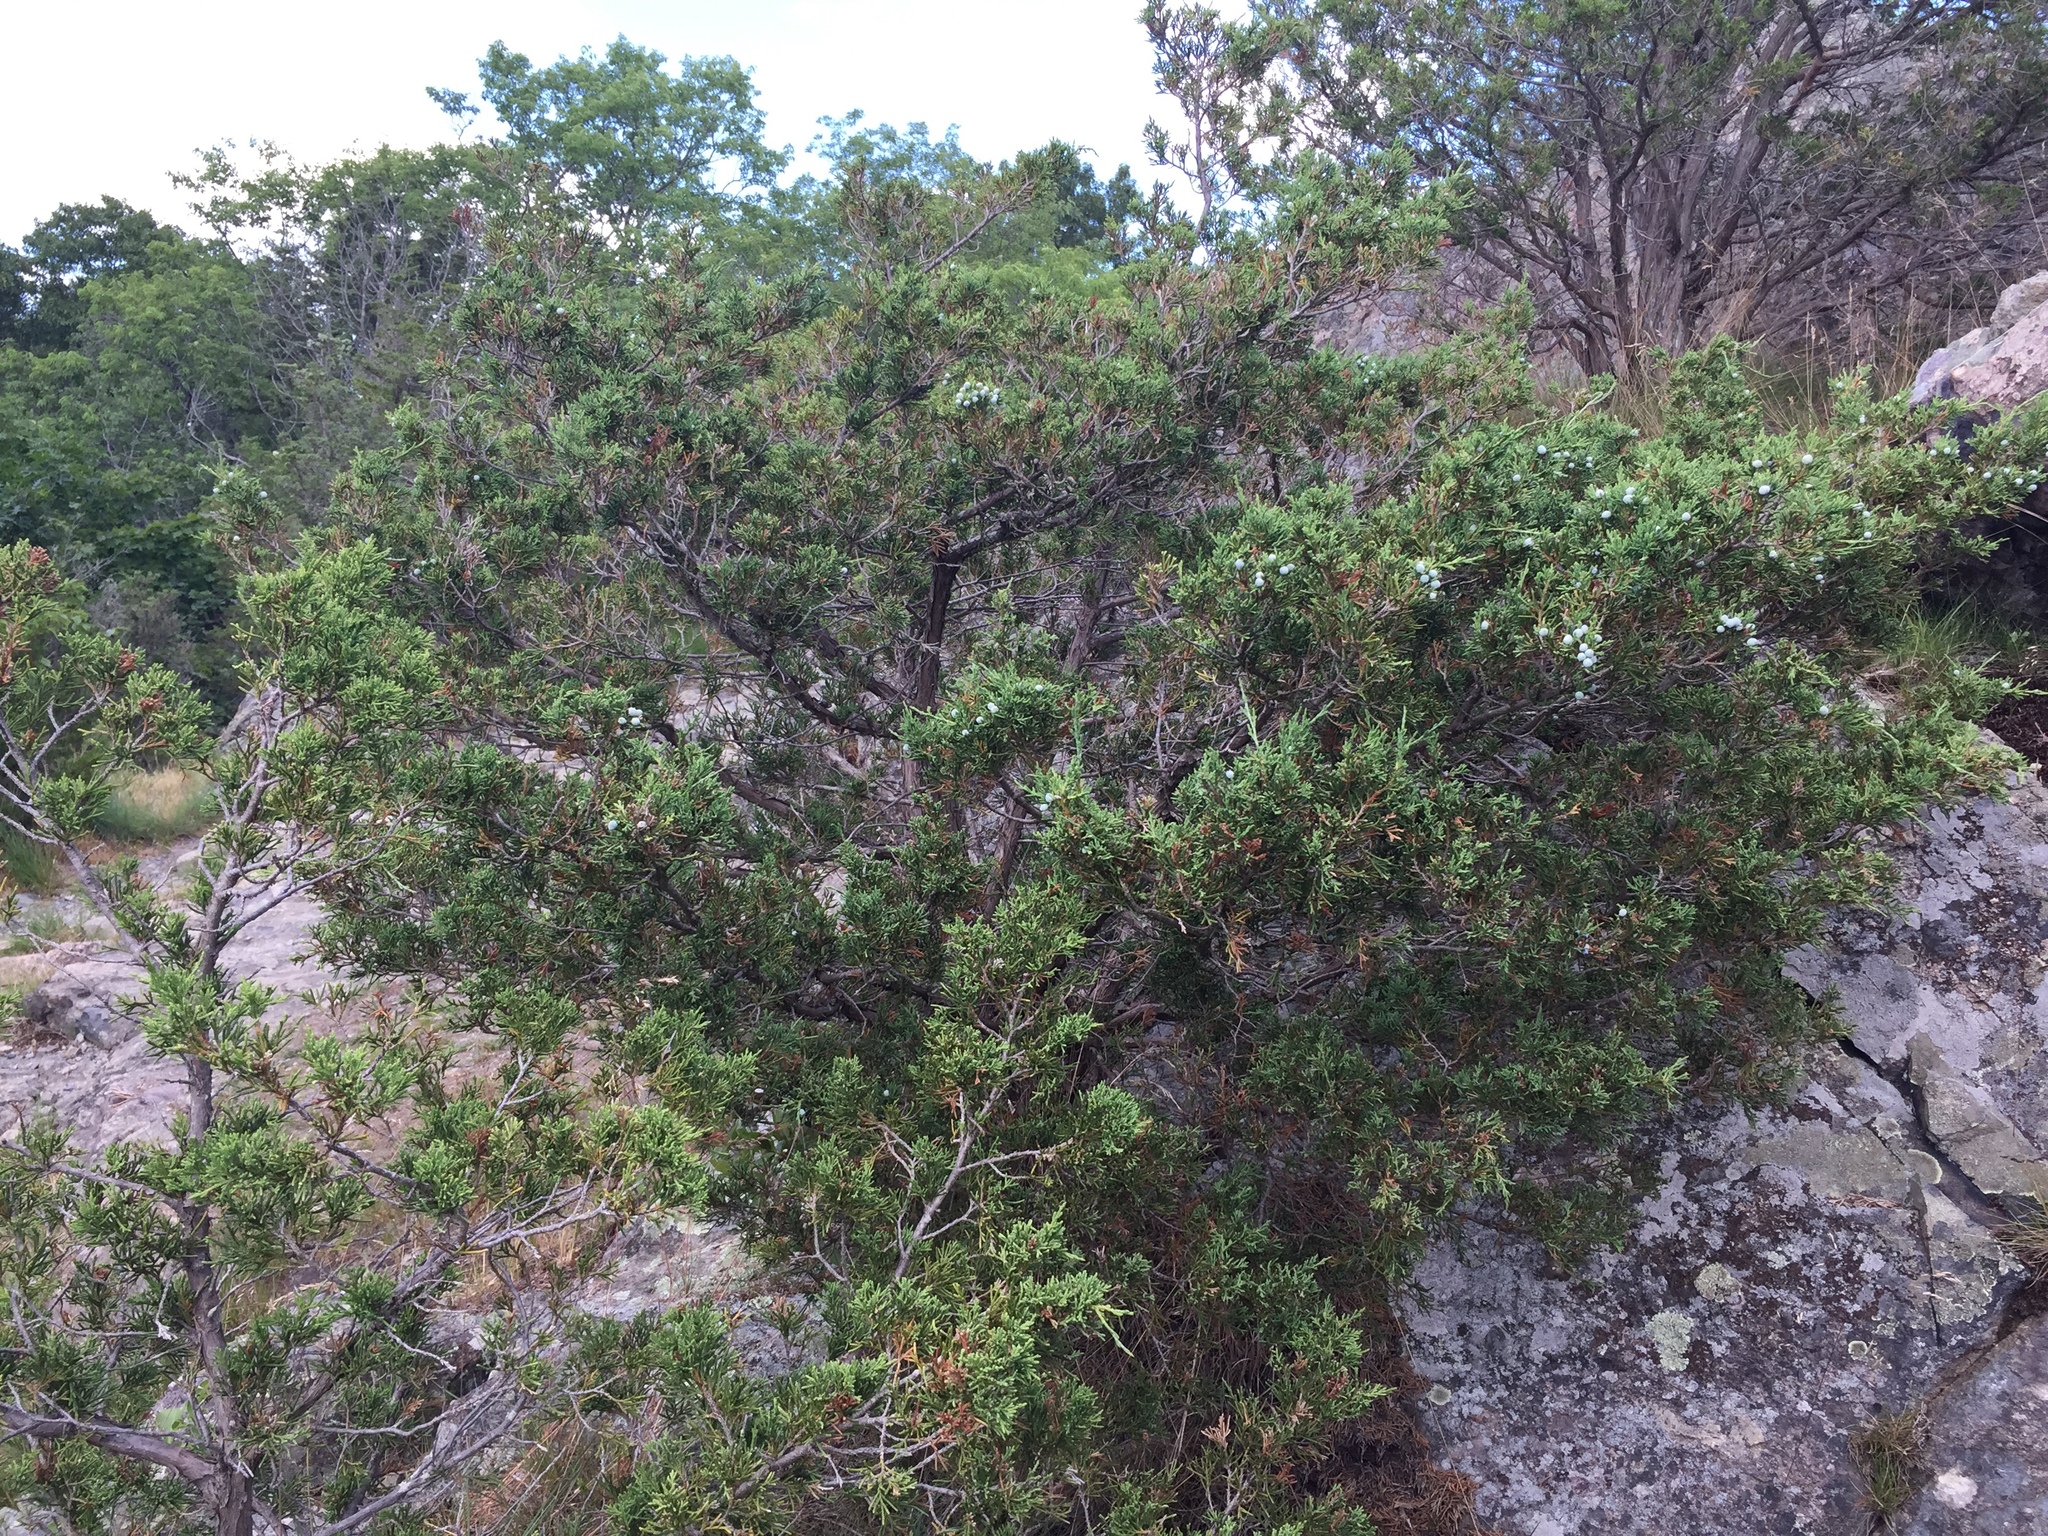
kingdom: Plantae
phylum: Tracheophyta
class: Pinopsida
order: Pinales
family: Cupressaceae
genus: Juniperus
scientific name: Juniperus virginiana
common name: Red juniper
